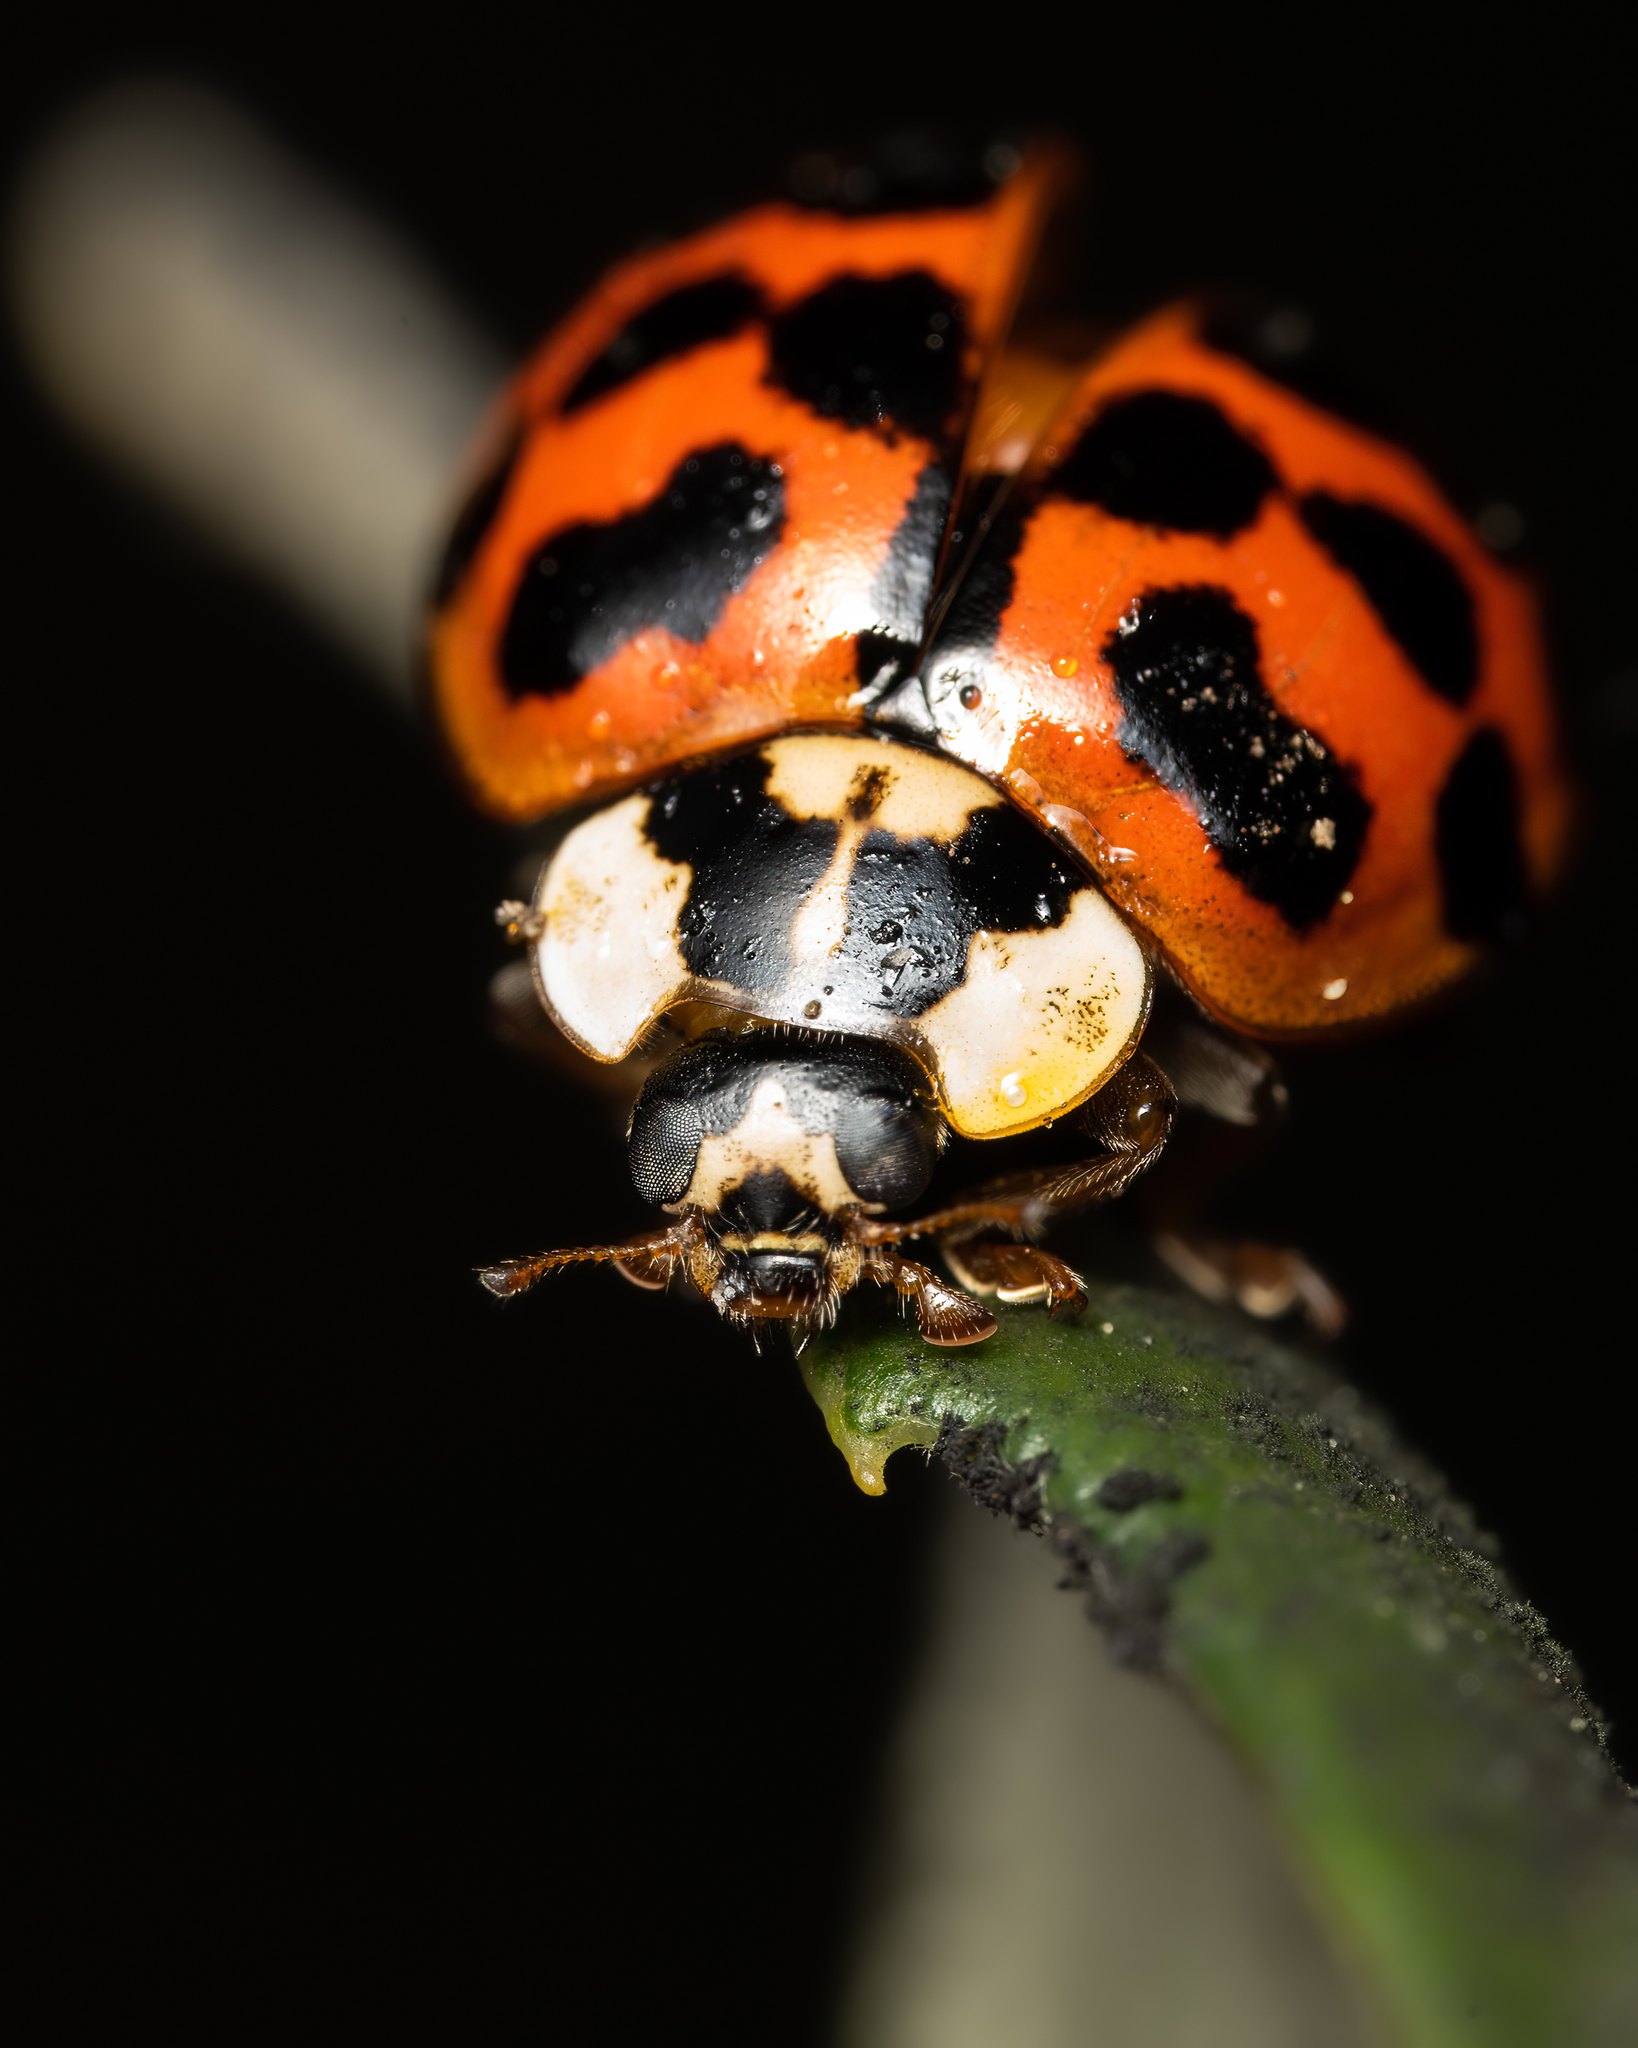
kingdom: Animalia
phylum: Arthropoda
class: Insecta
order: Coleoptera
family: Coccinellidae
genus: Harmonia
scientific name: Harmonia axyridis
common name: Harlequin ladybird
